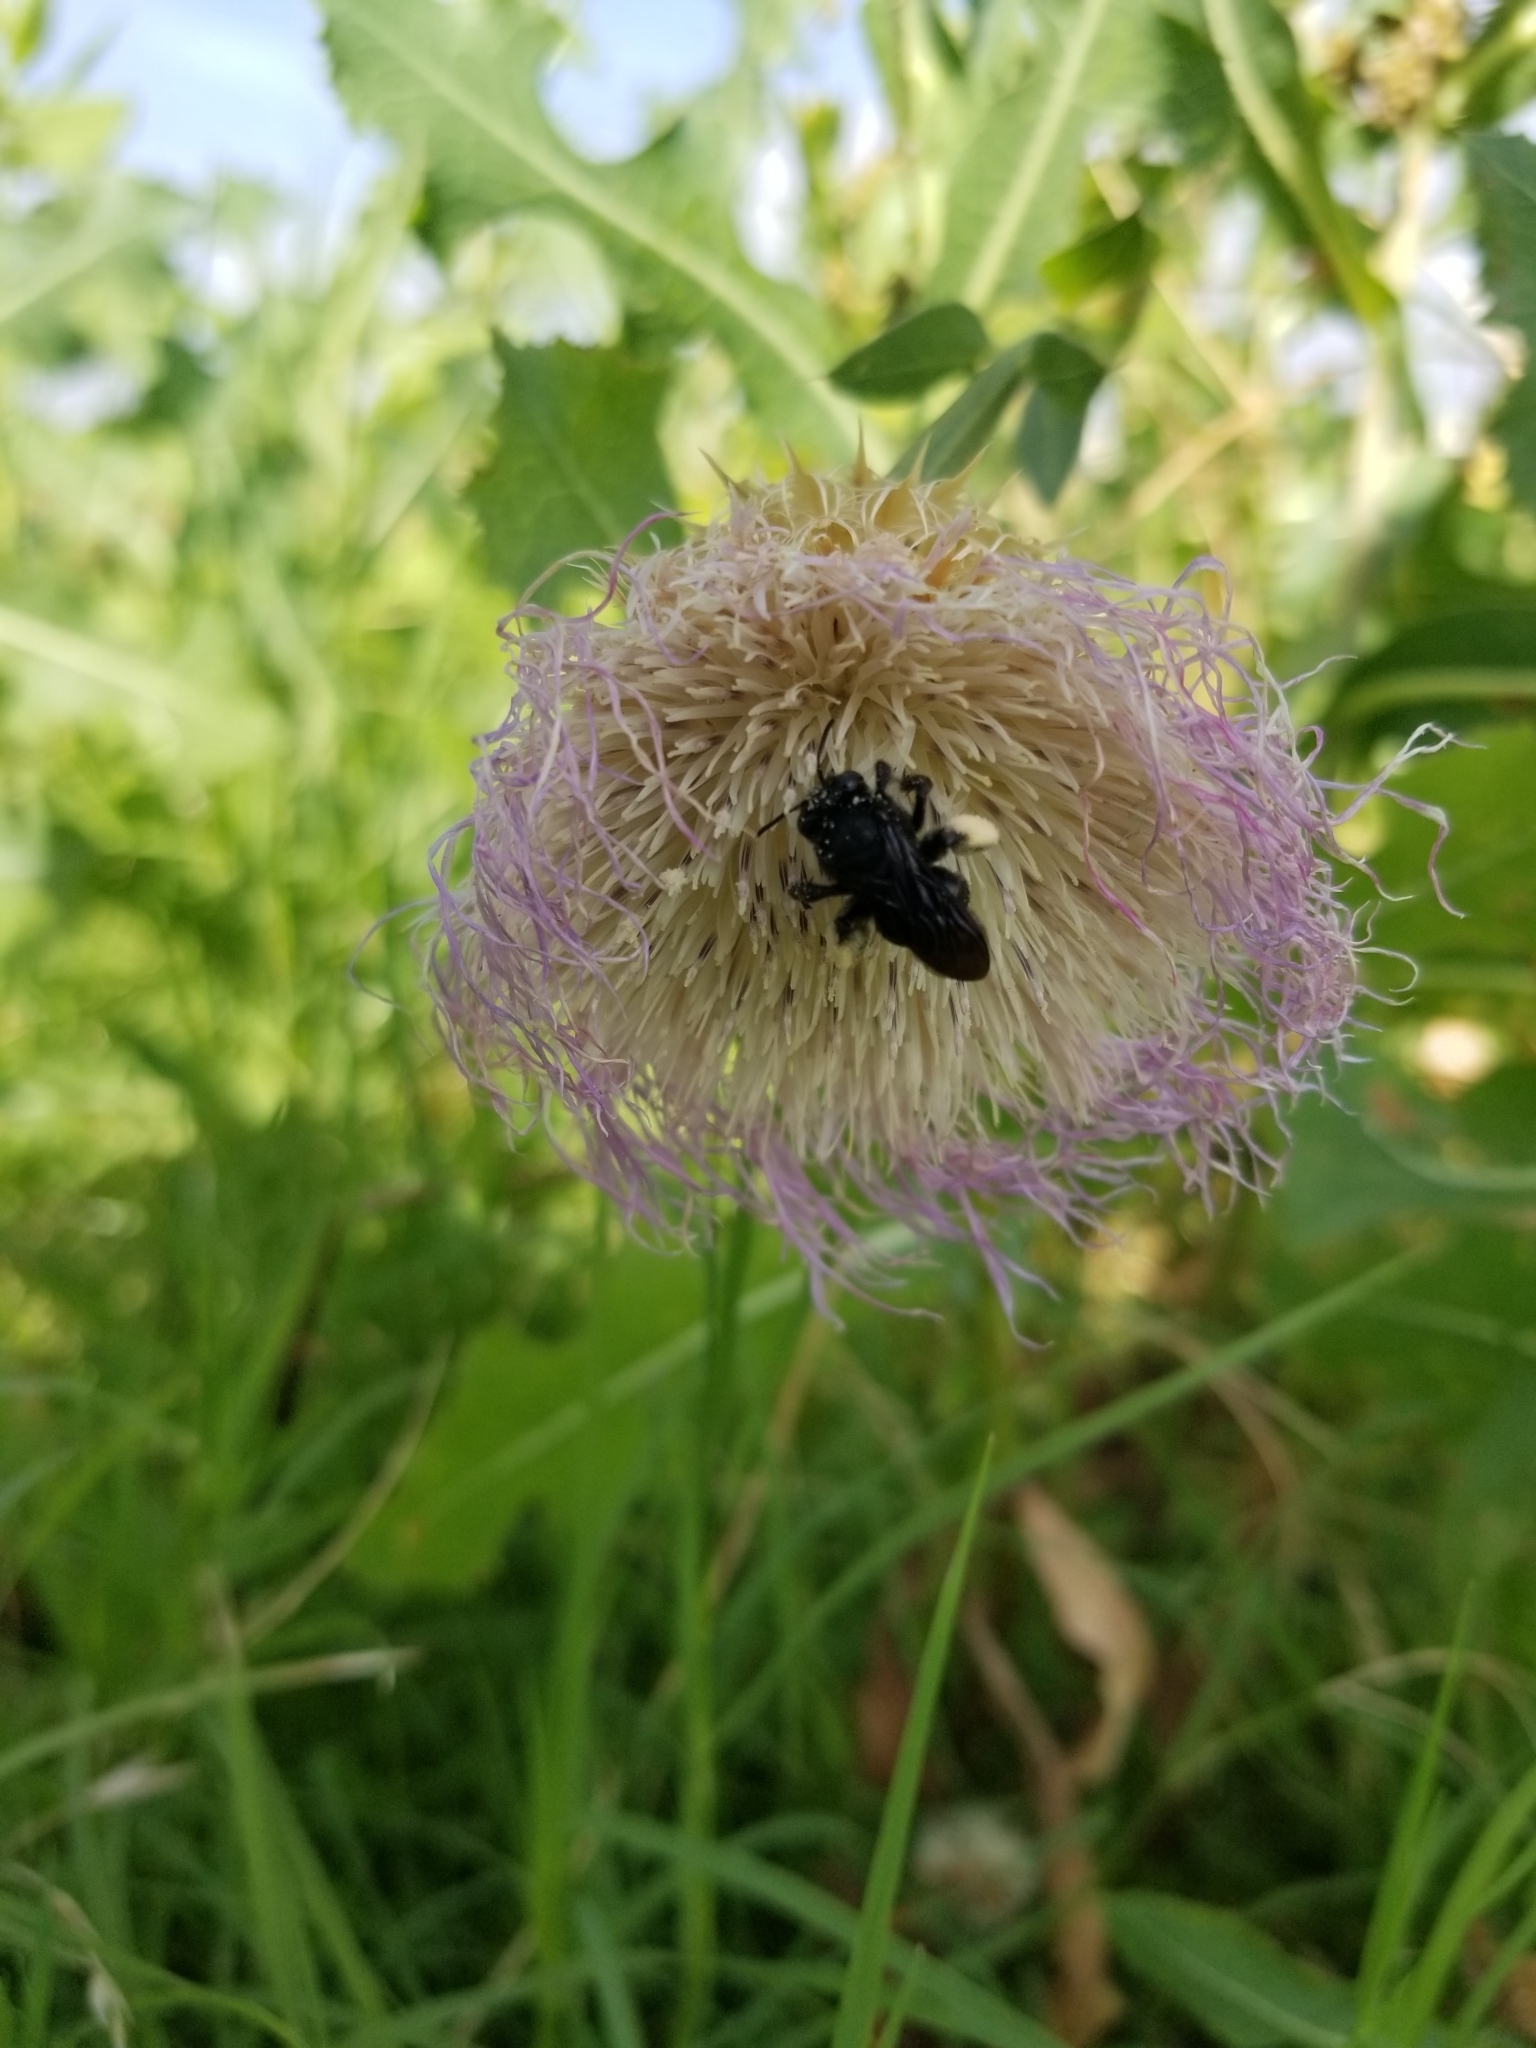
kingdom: Animalia
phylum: Arthropoda
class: Insecta
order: Hymenoptera
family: Apidae
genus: Melissodes
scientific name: Melissodes bimaculatus
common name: Two-spotted long-horned bee
